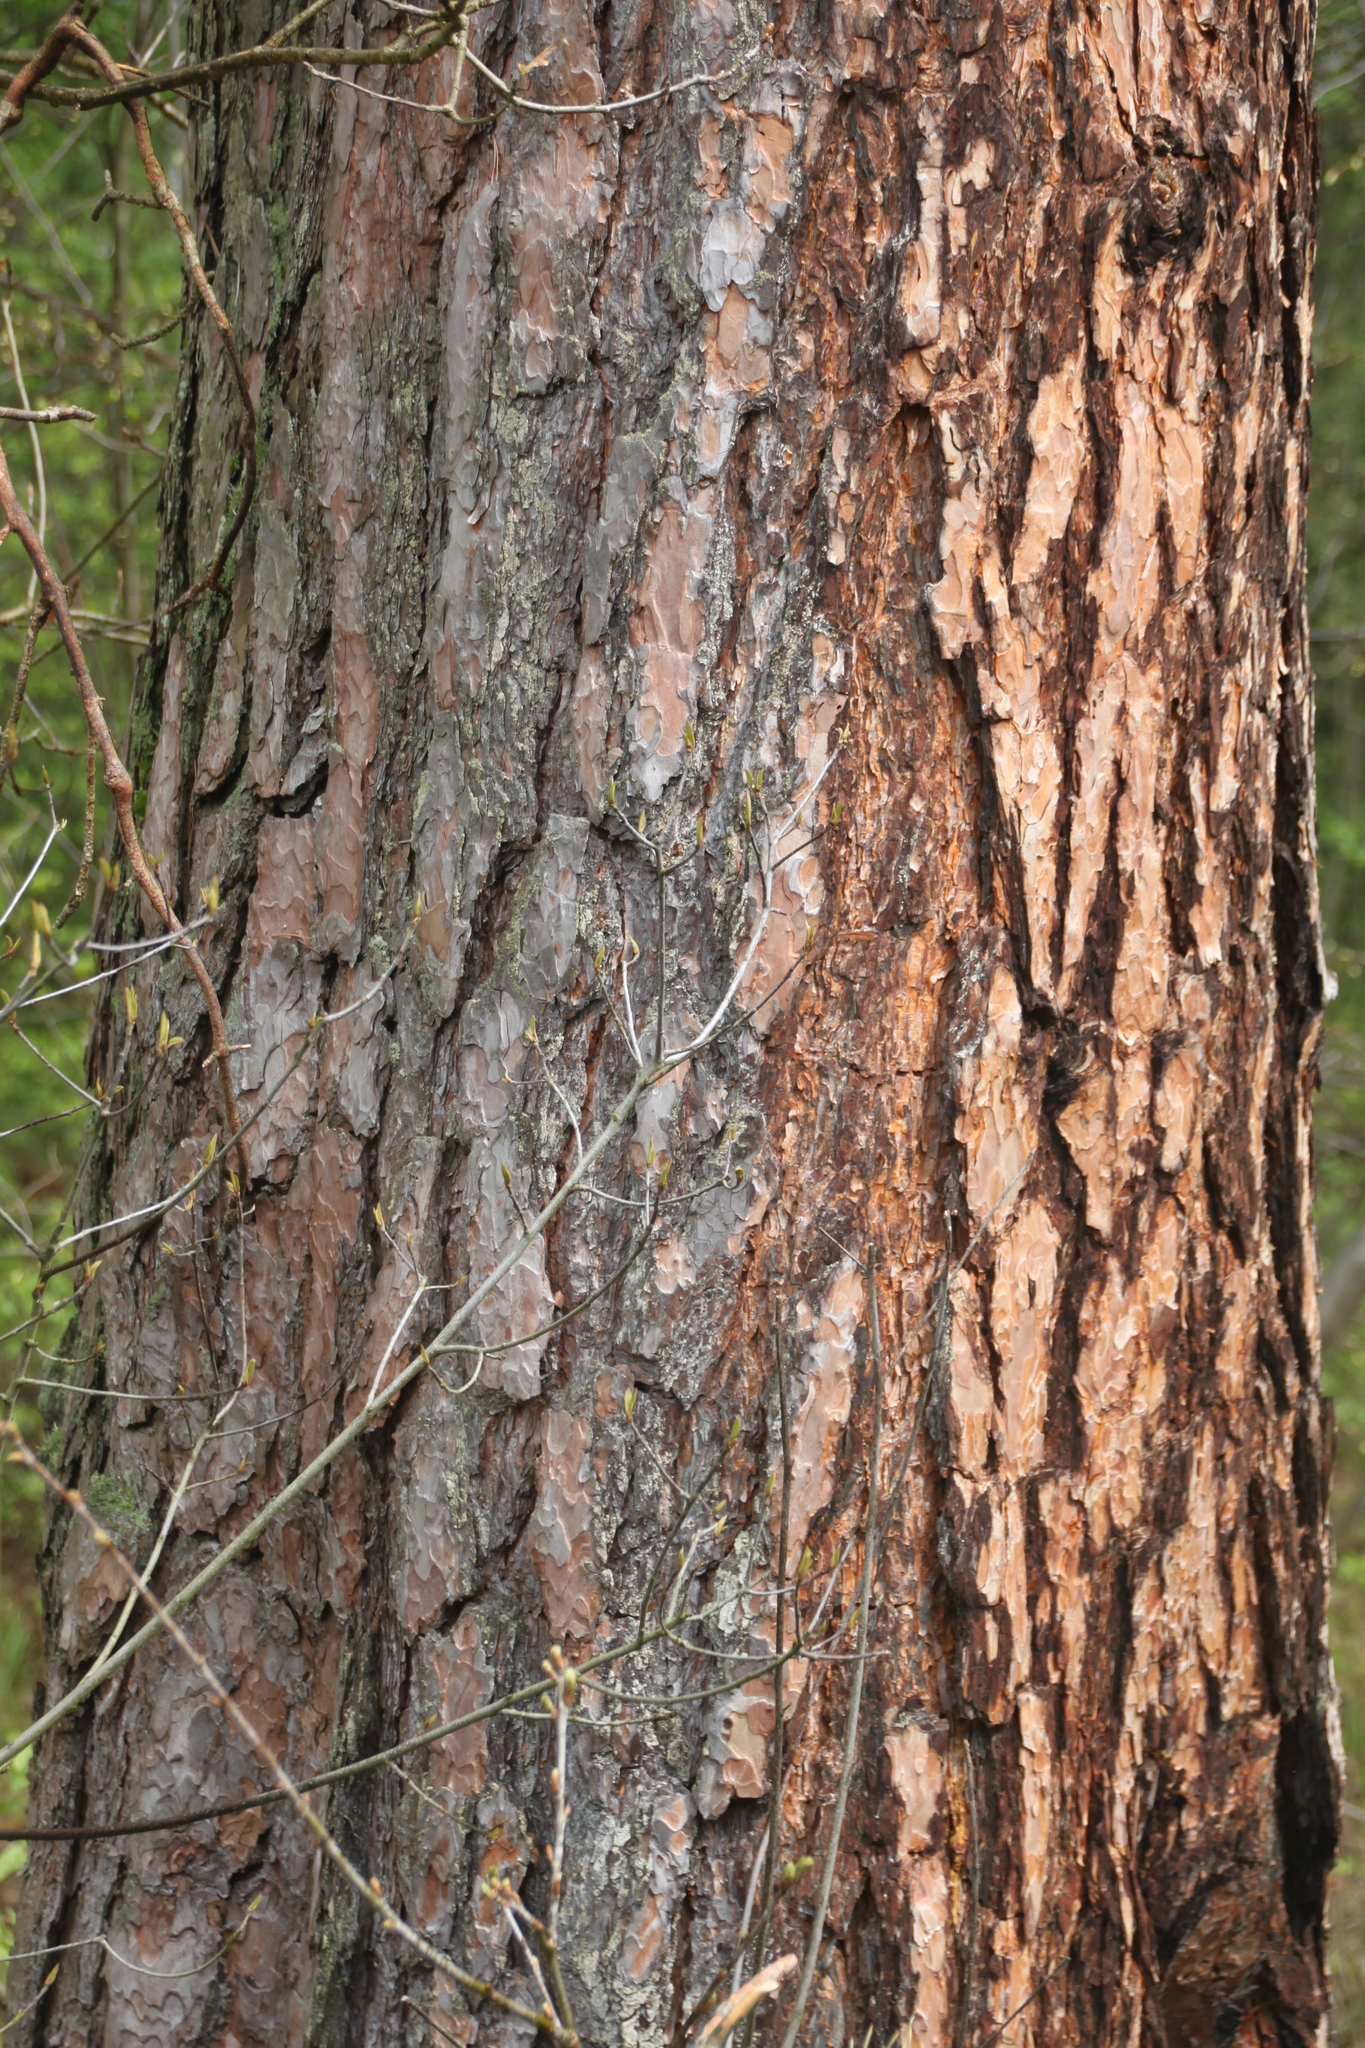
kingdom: Plantae
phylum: Tracheophyta
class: Pinopsida
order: Pinales
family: Pinaceae
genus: Pinus
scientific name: Pinus sylvestris
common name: Scots pine
